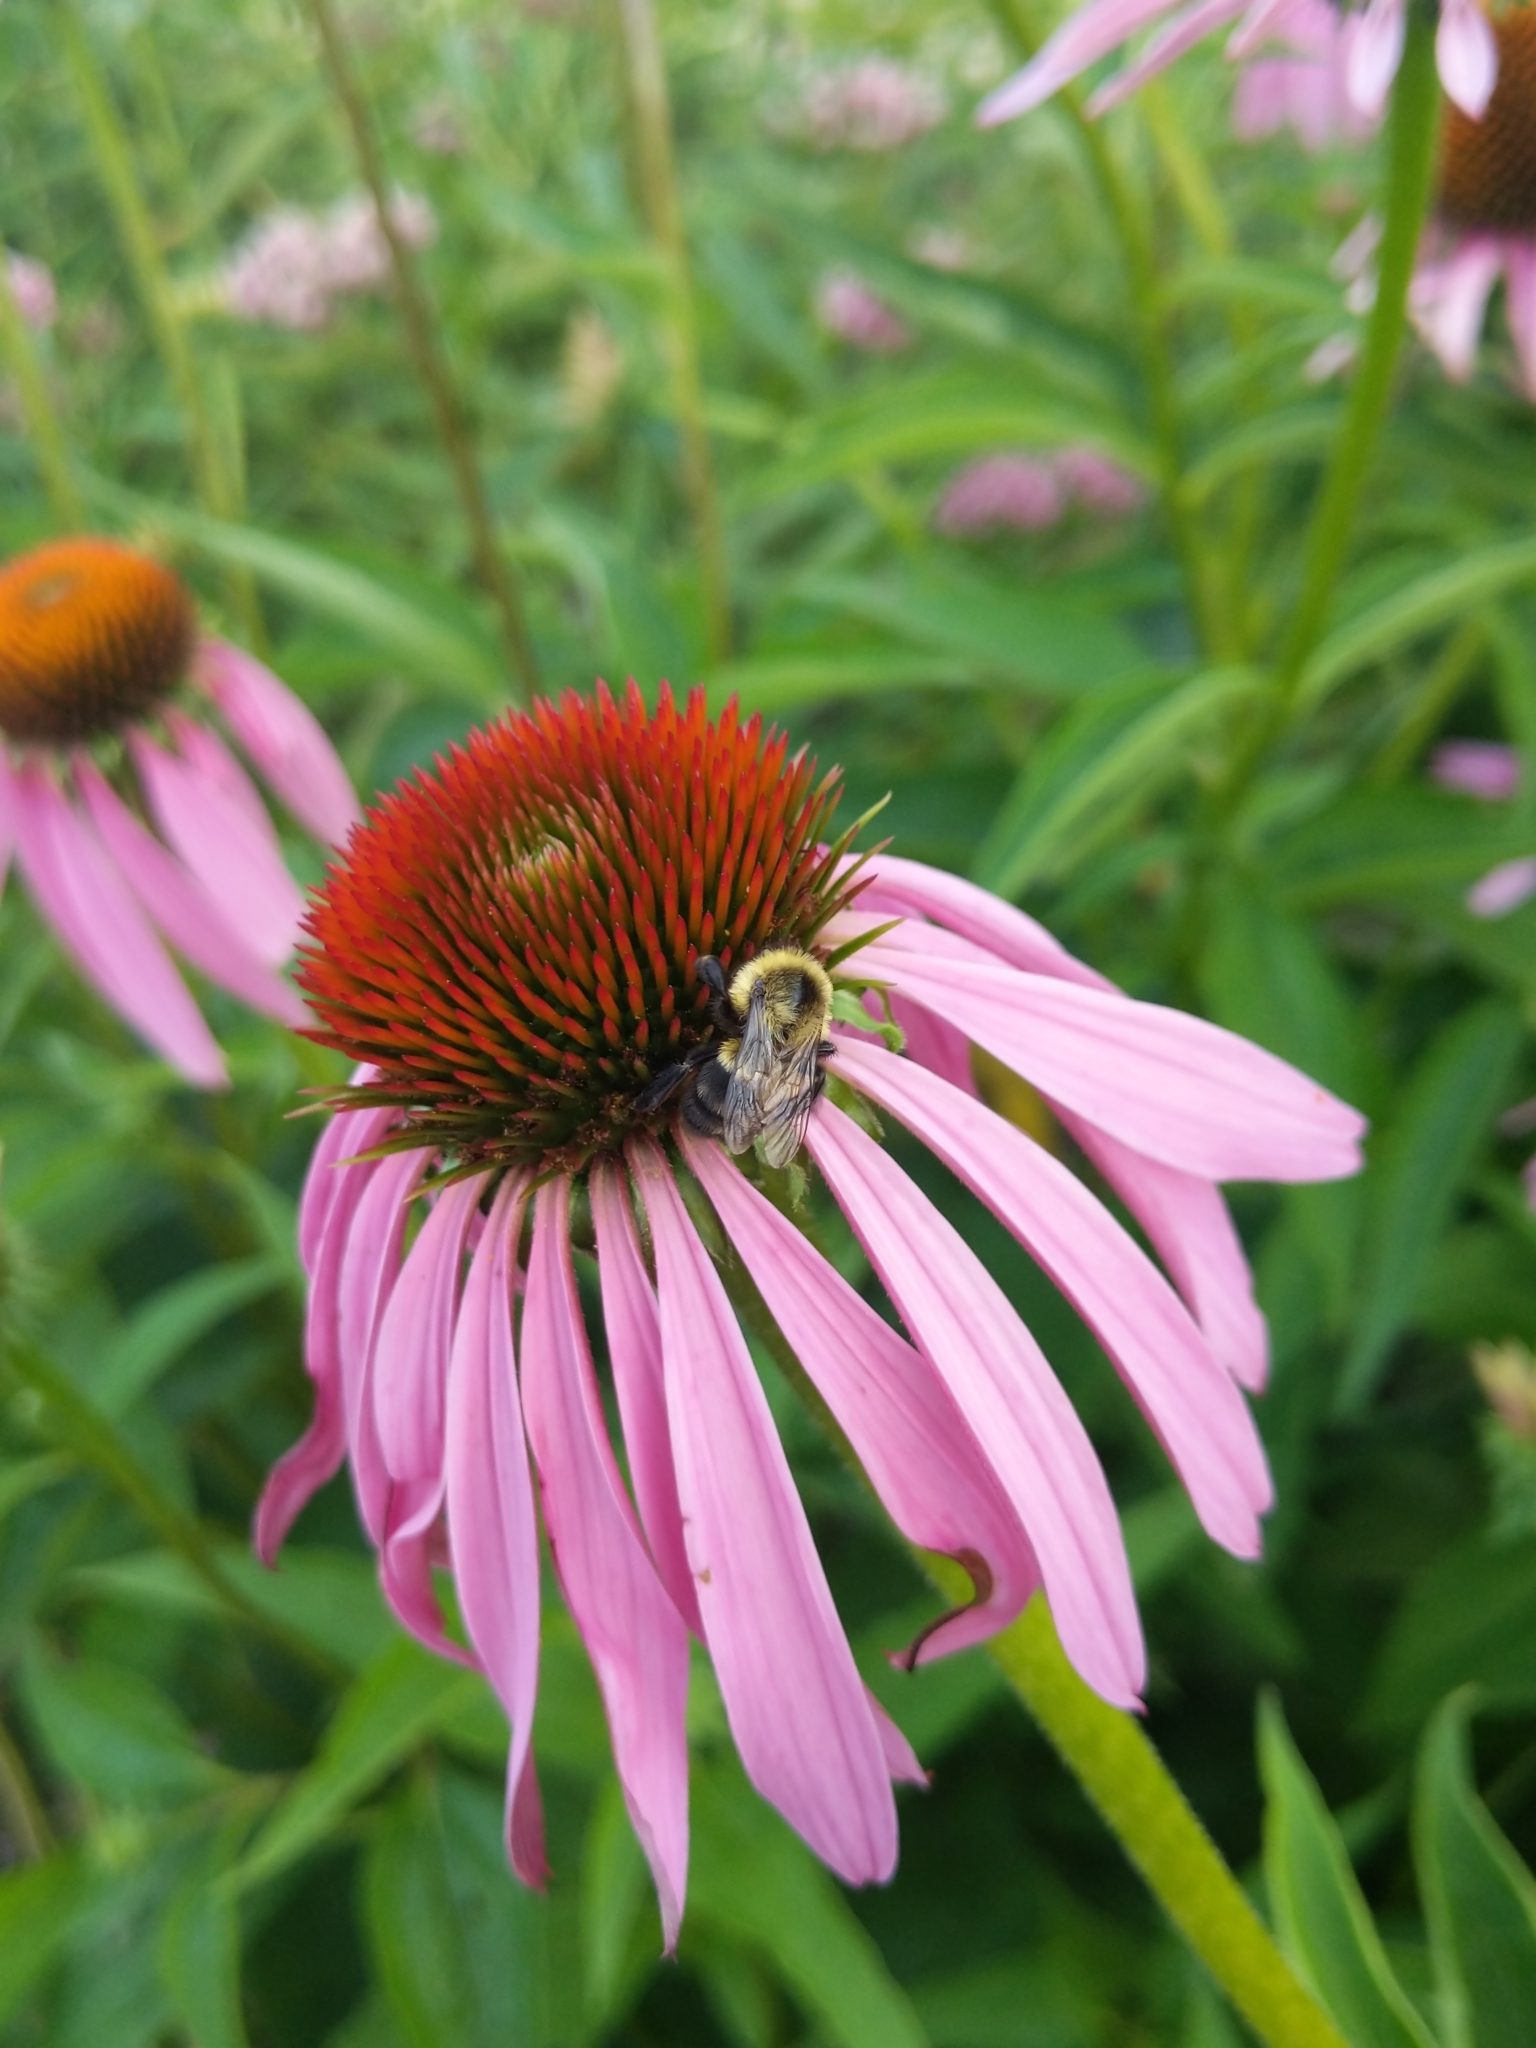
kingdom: Animalia
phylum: Arthropoda
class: Insecta
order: Hymenoptera
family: Apidae
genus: Bombus
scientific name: Bombus impatiens
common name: Common eastern bumble bee
